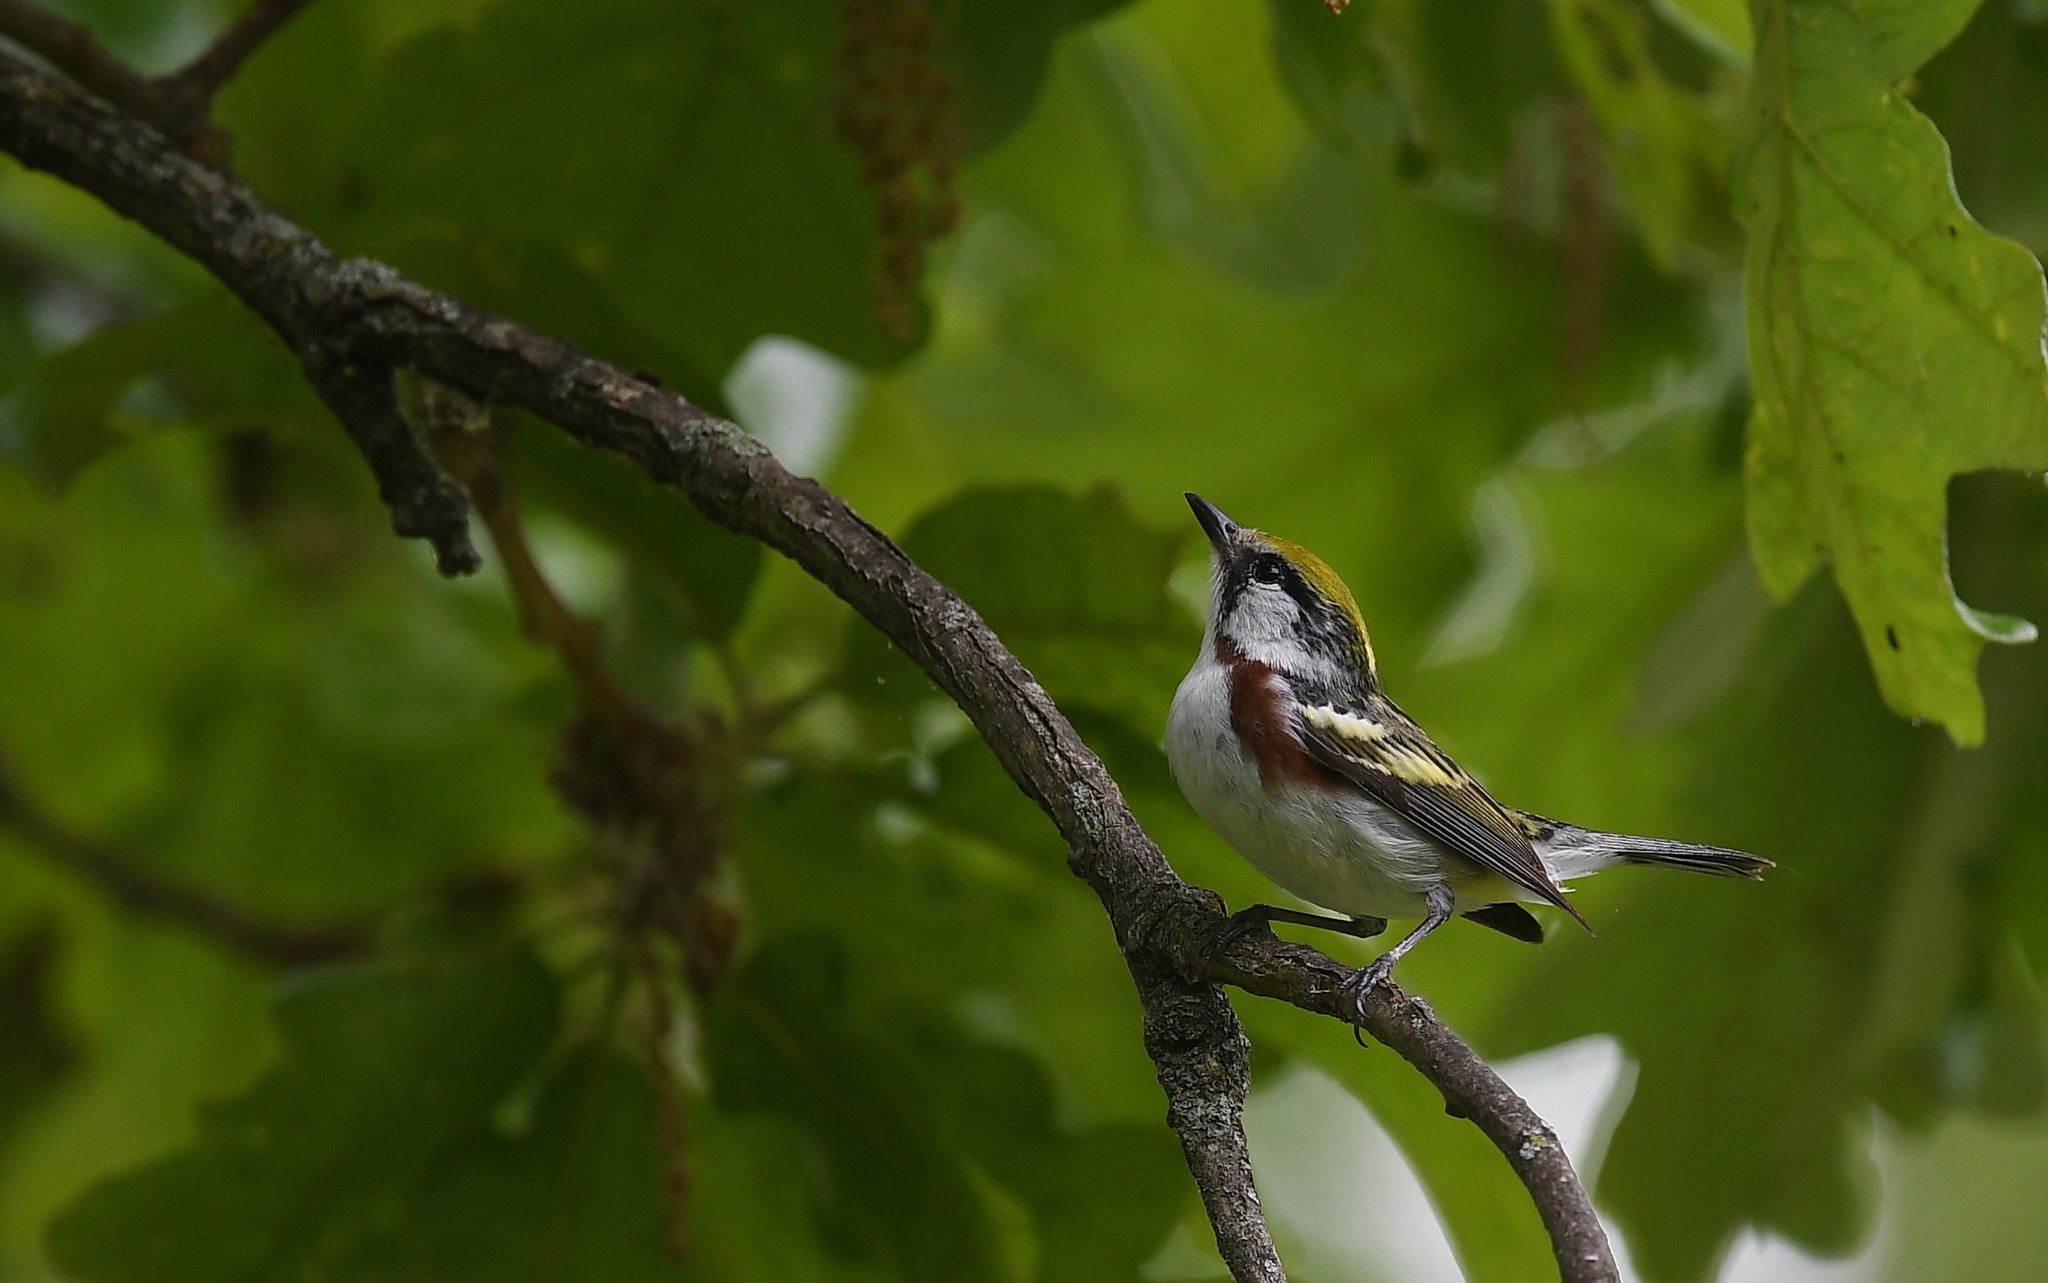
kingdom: Animalia
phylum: Chordata
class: Aves
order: Passeriformes
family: Parulidae
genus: Setophaga
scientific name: Setophaga pensylvanica
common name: Chestnut-sided warbler
